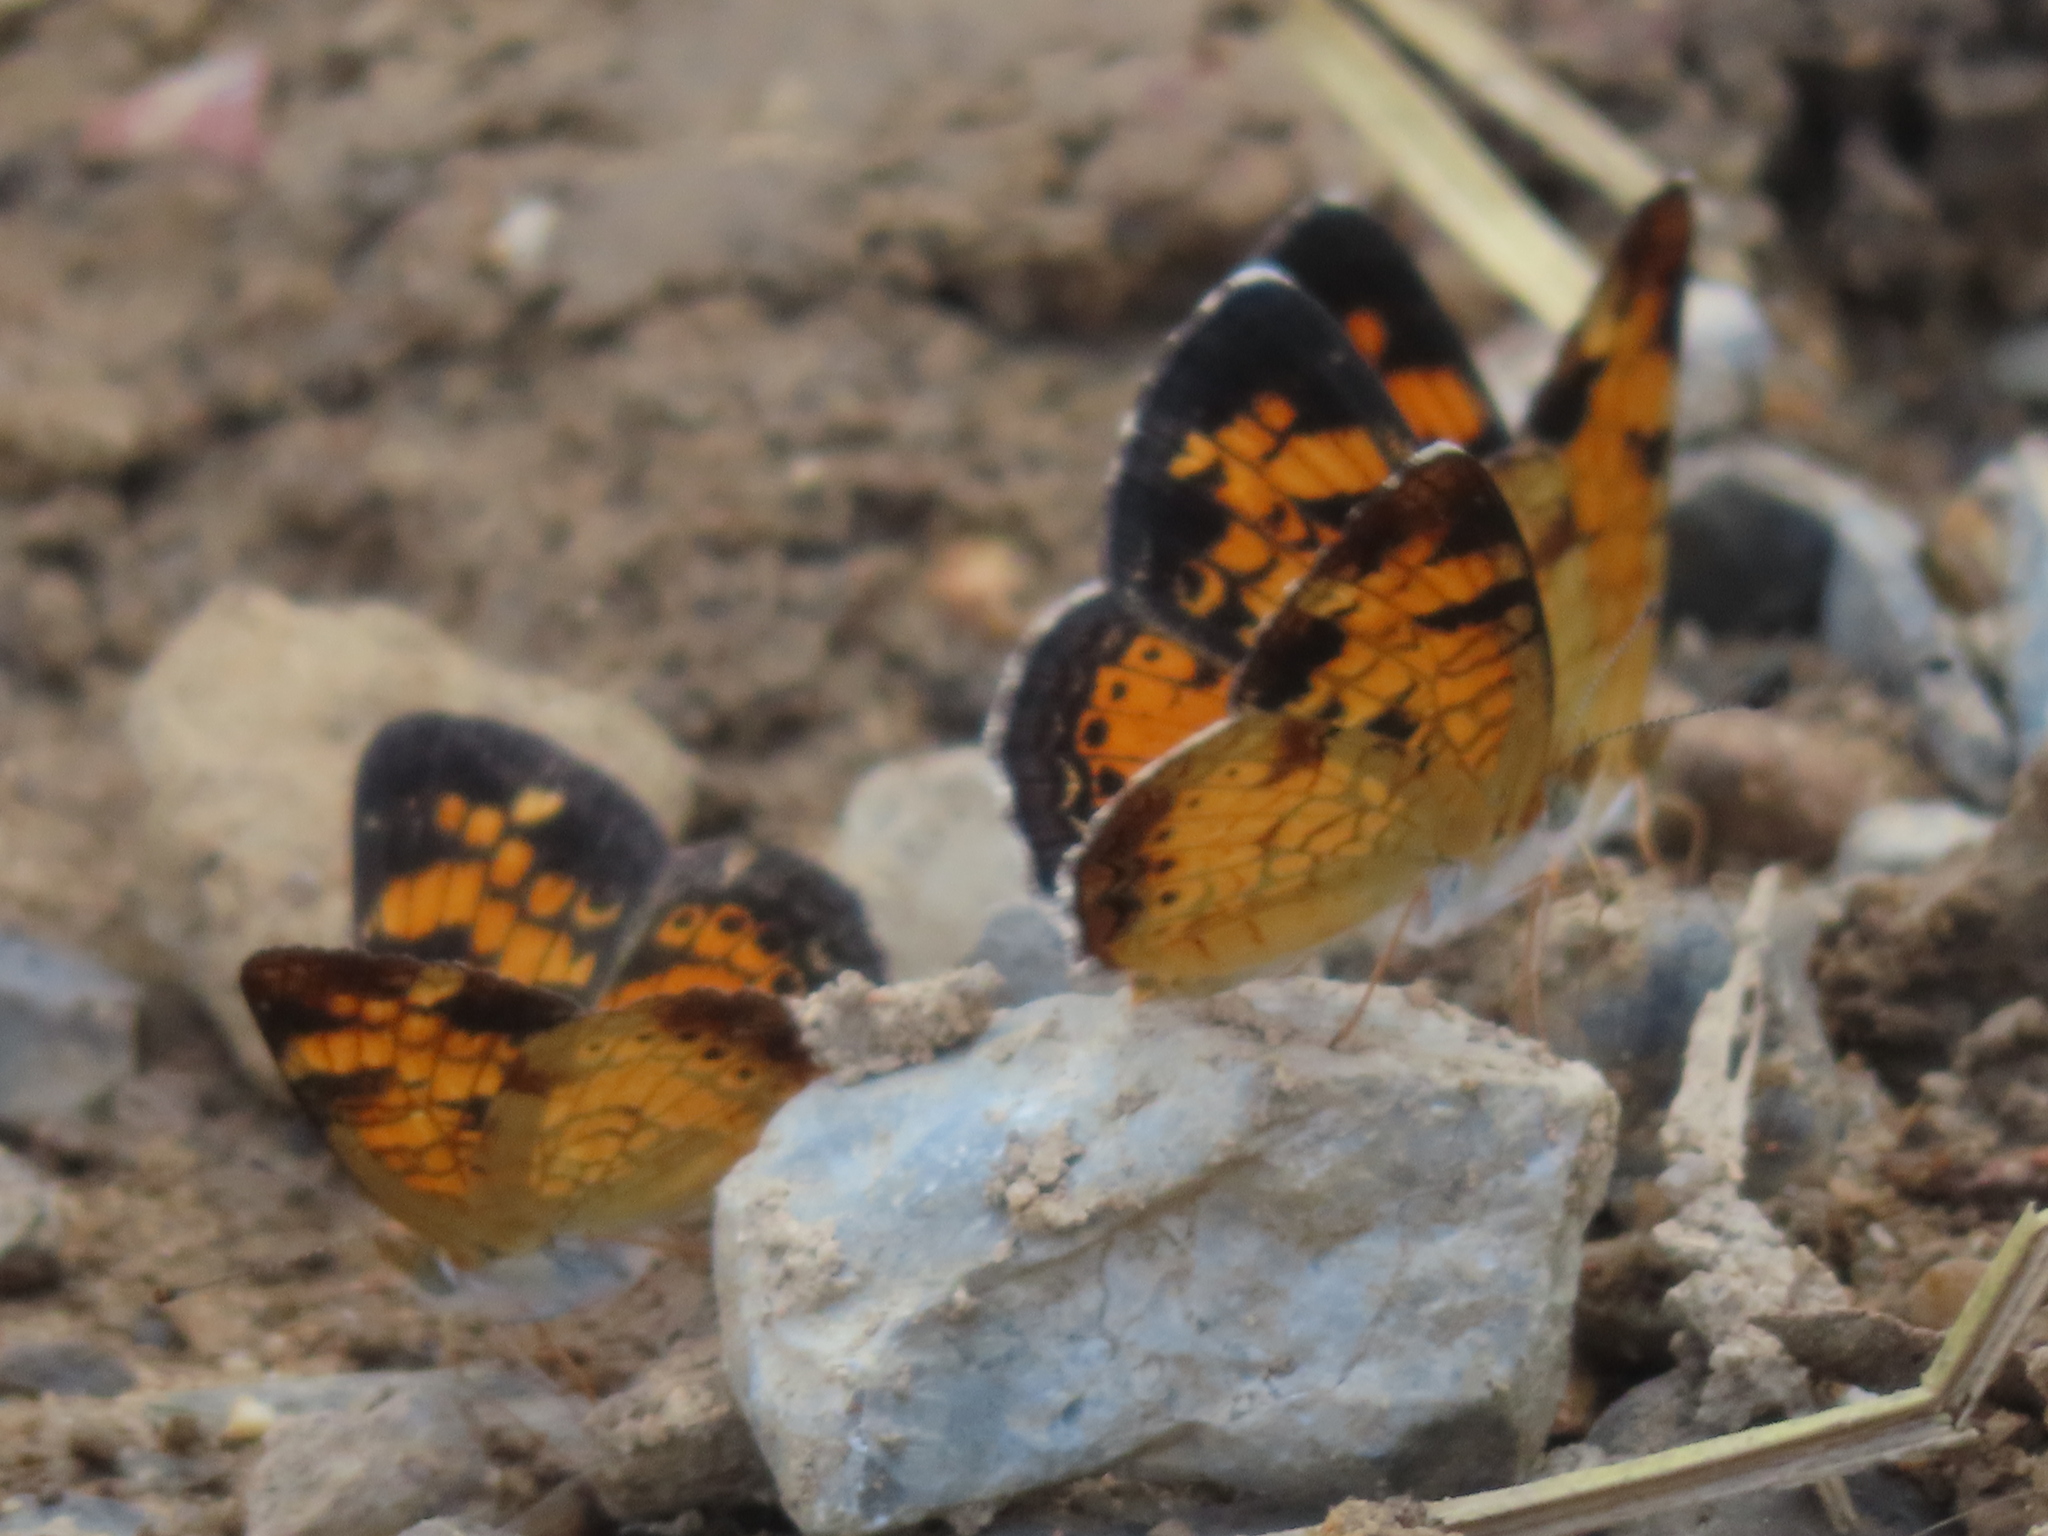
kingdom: Animalia
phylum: Arthropoda
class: Insecta
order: Lepidoptera
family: Nymphalidae
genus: Phyciodes
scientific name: Phyciodes tharos
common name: Pearl crescent
